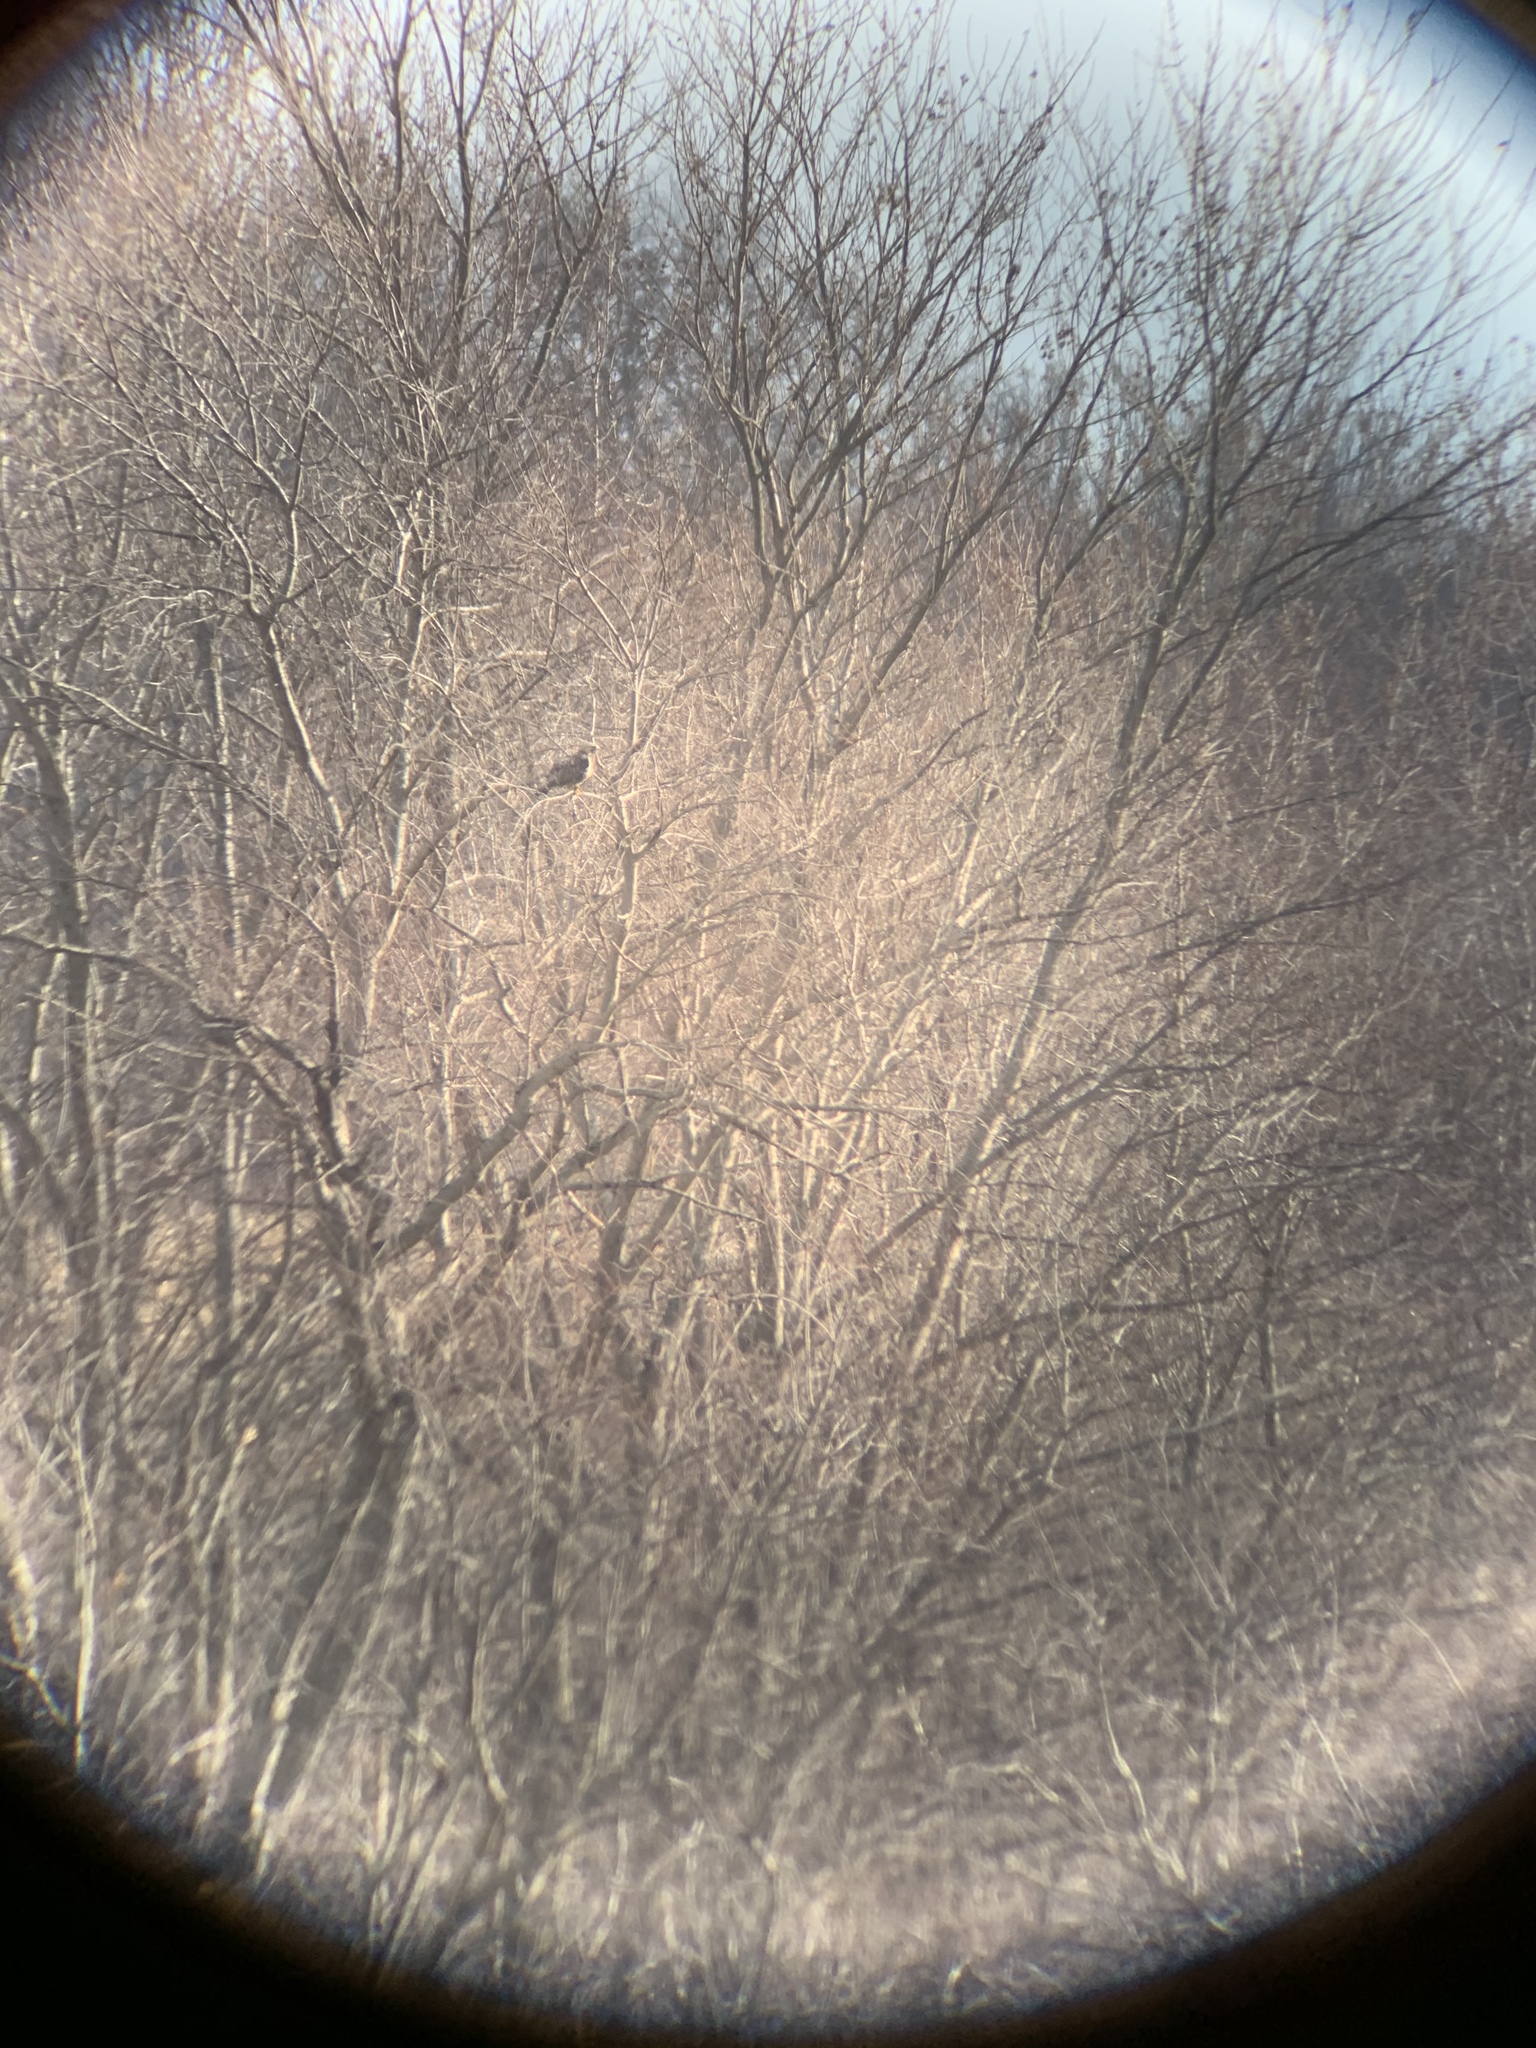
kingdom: Animalia
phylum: Chordata
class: Aves
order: Accipitriformes
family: Accipitridae
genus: Buteo
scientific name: Buteo jamaicensis
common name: Red-tailed hawk
